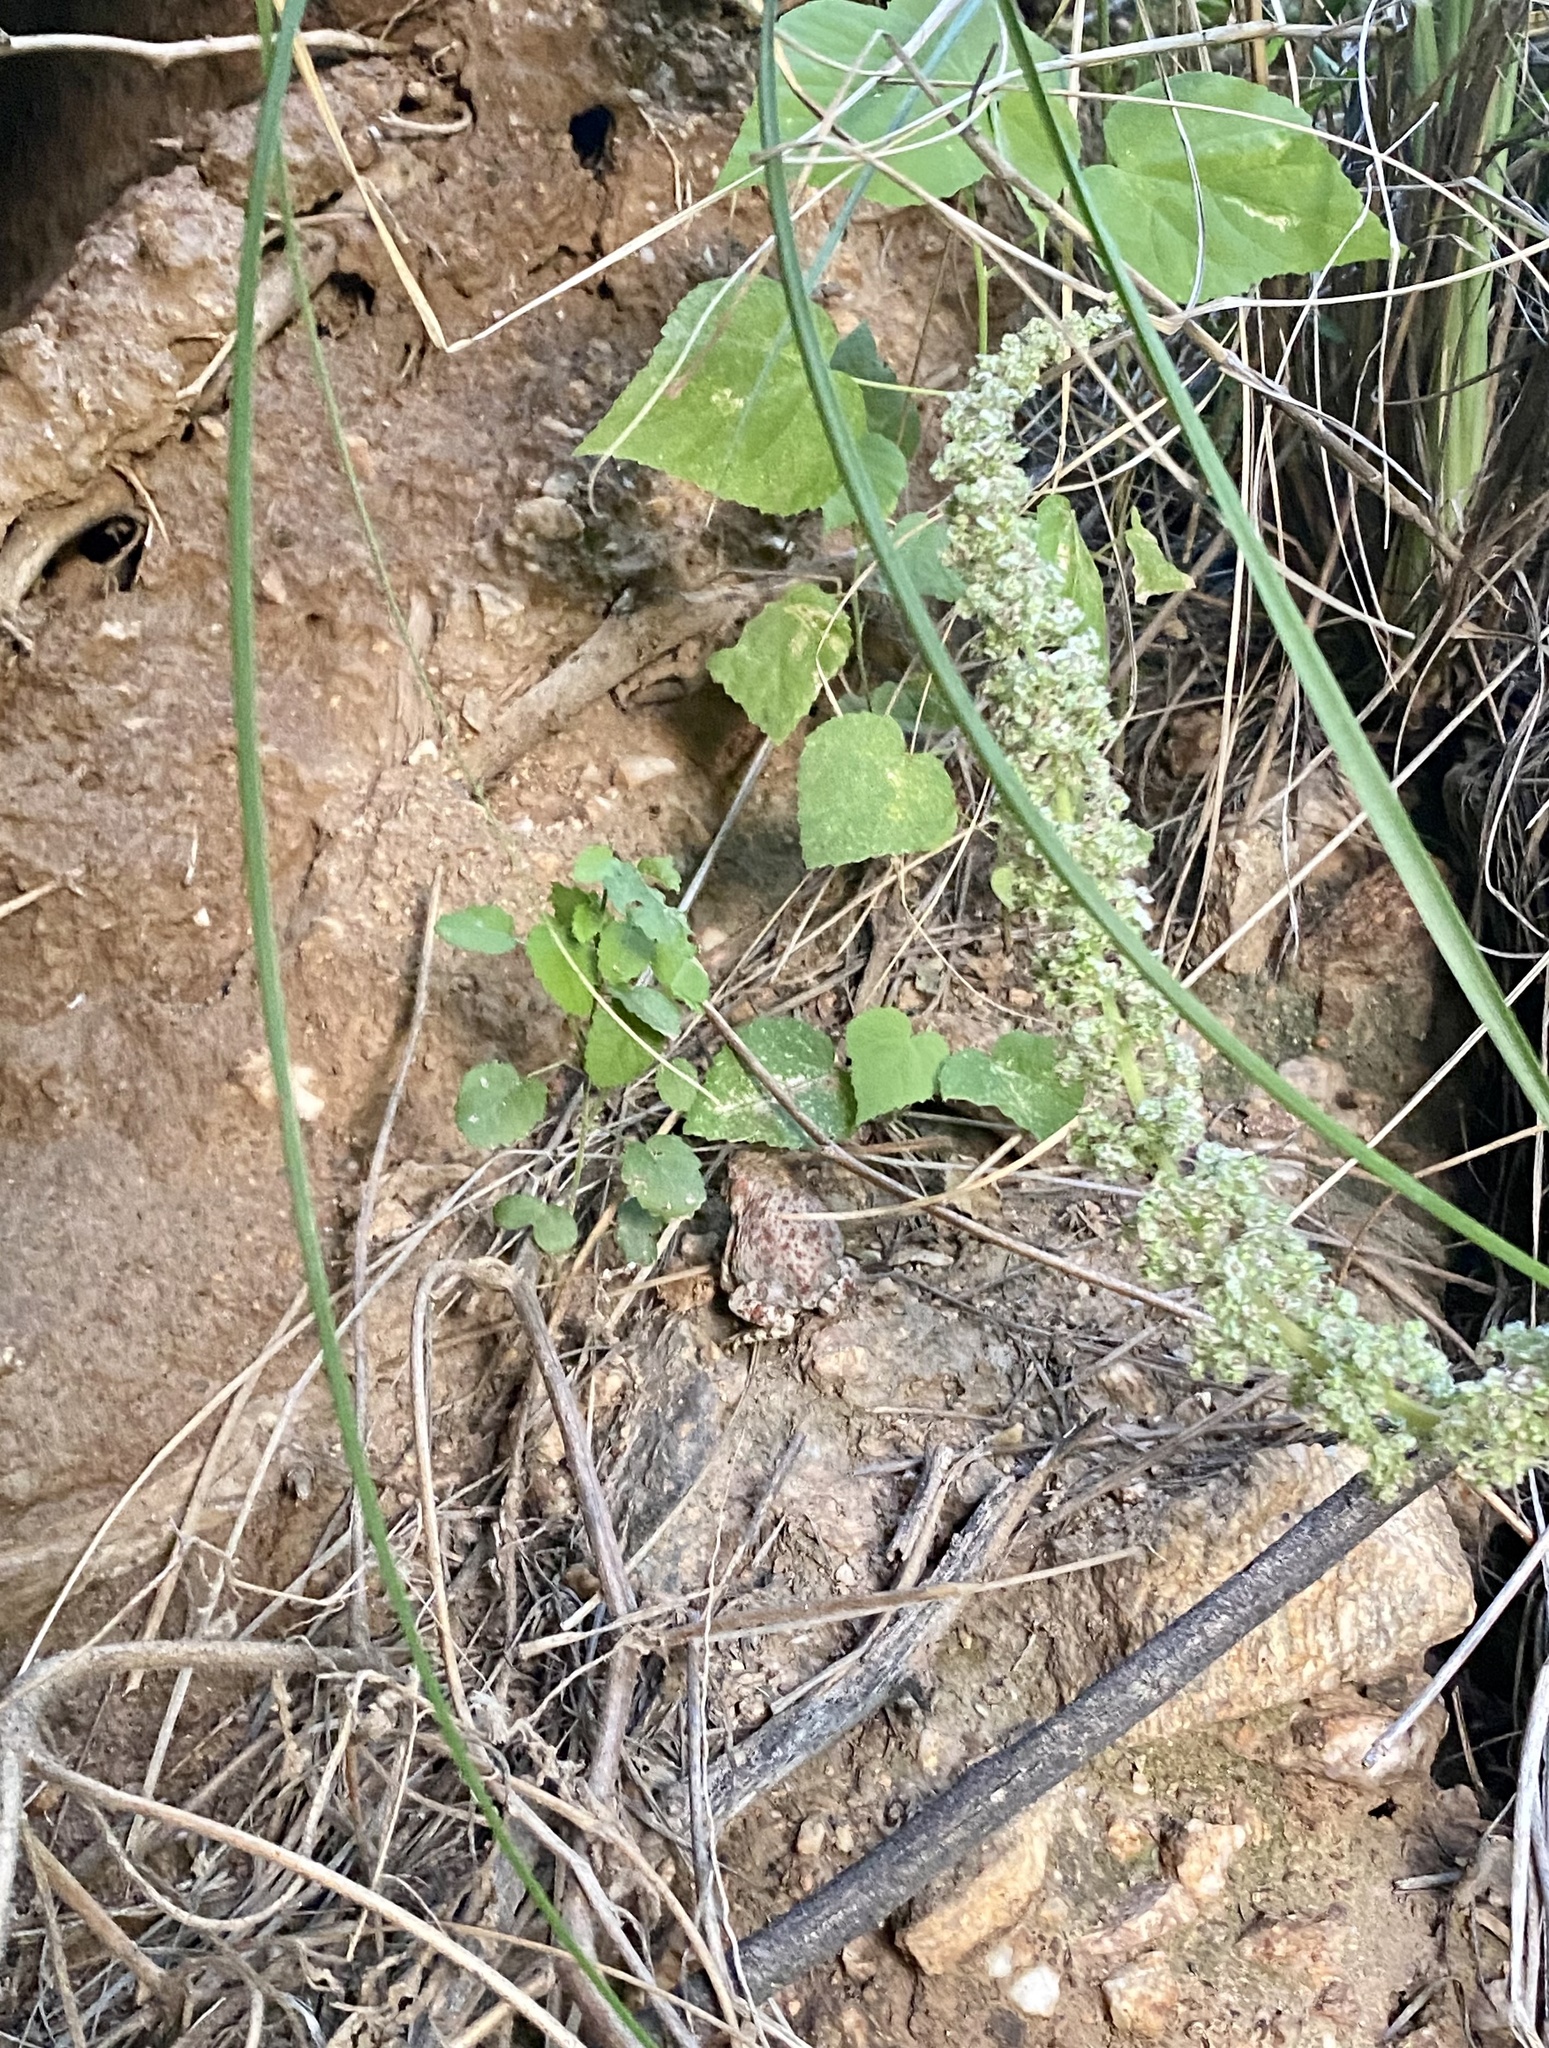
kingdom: Animalia
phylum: Chordata
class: Amphibia
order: Anura
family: Bufonidae
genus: Anaxyrus
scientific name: Anaxyrus punctatus
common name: Red-spotted toad
